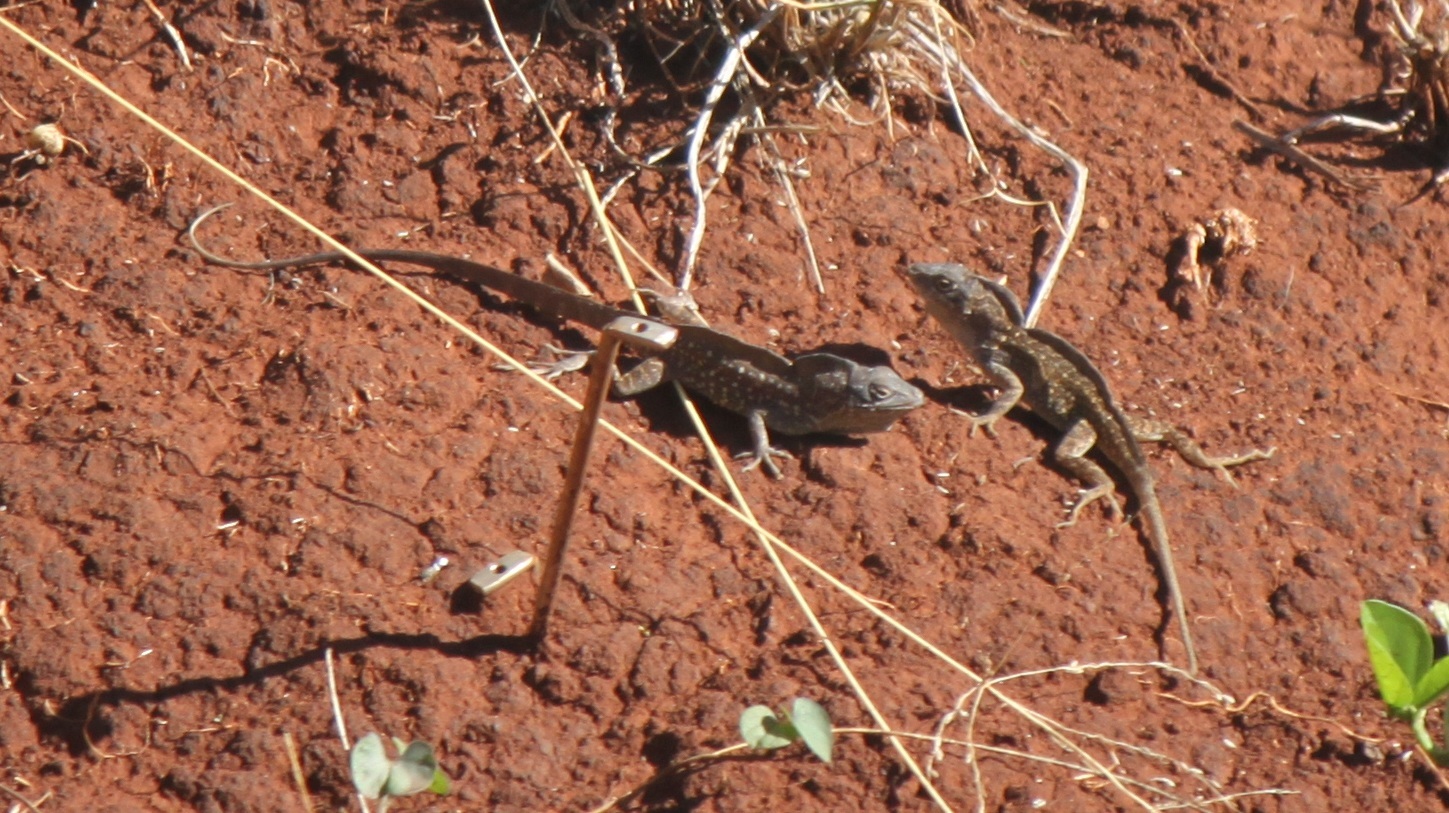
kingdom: Animalia
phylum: Chordata
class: Squamata
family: Dactyloidae
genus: Anolis
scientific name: Anolis sagrei
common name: Brown anole
